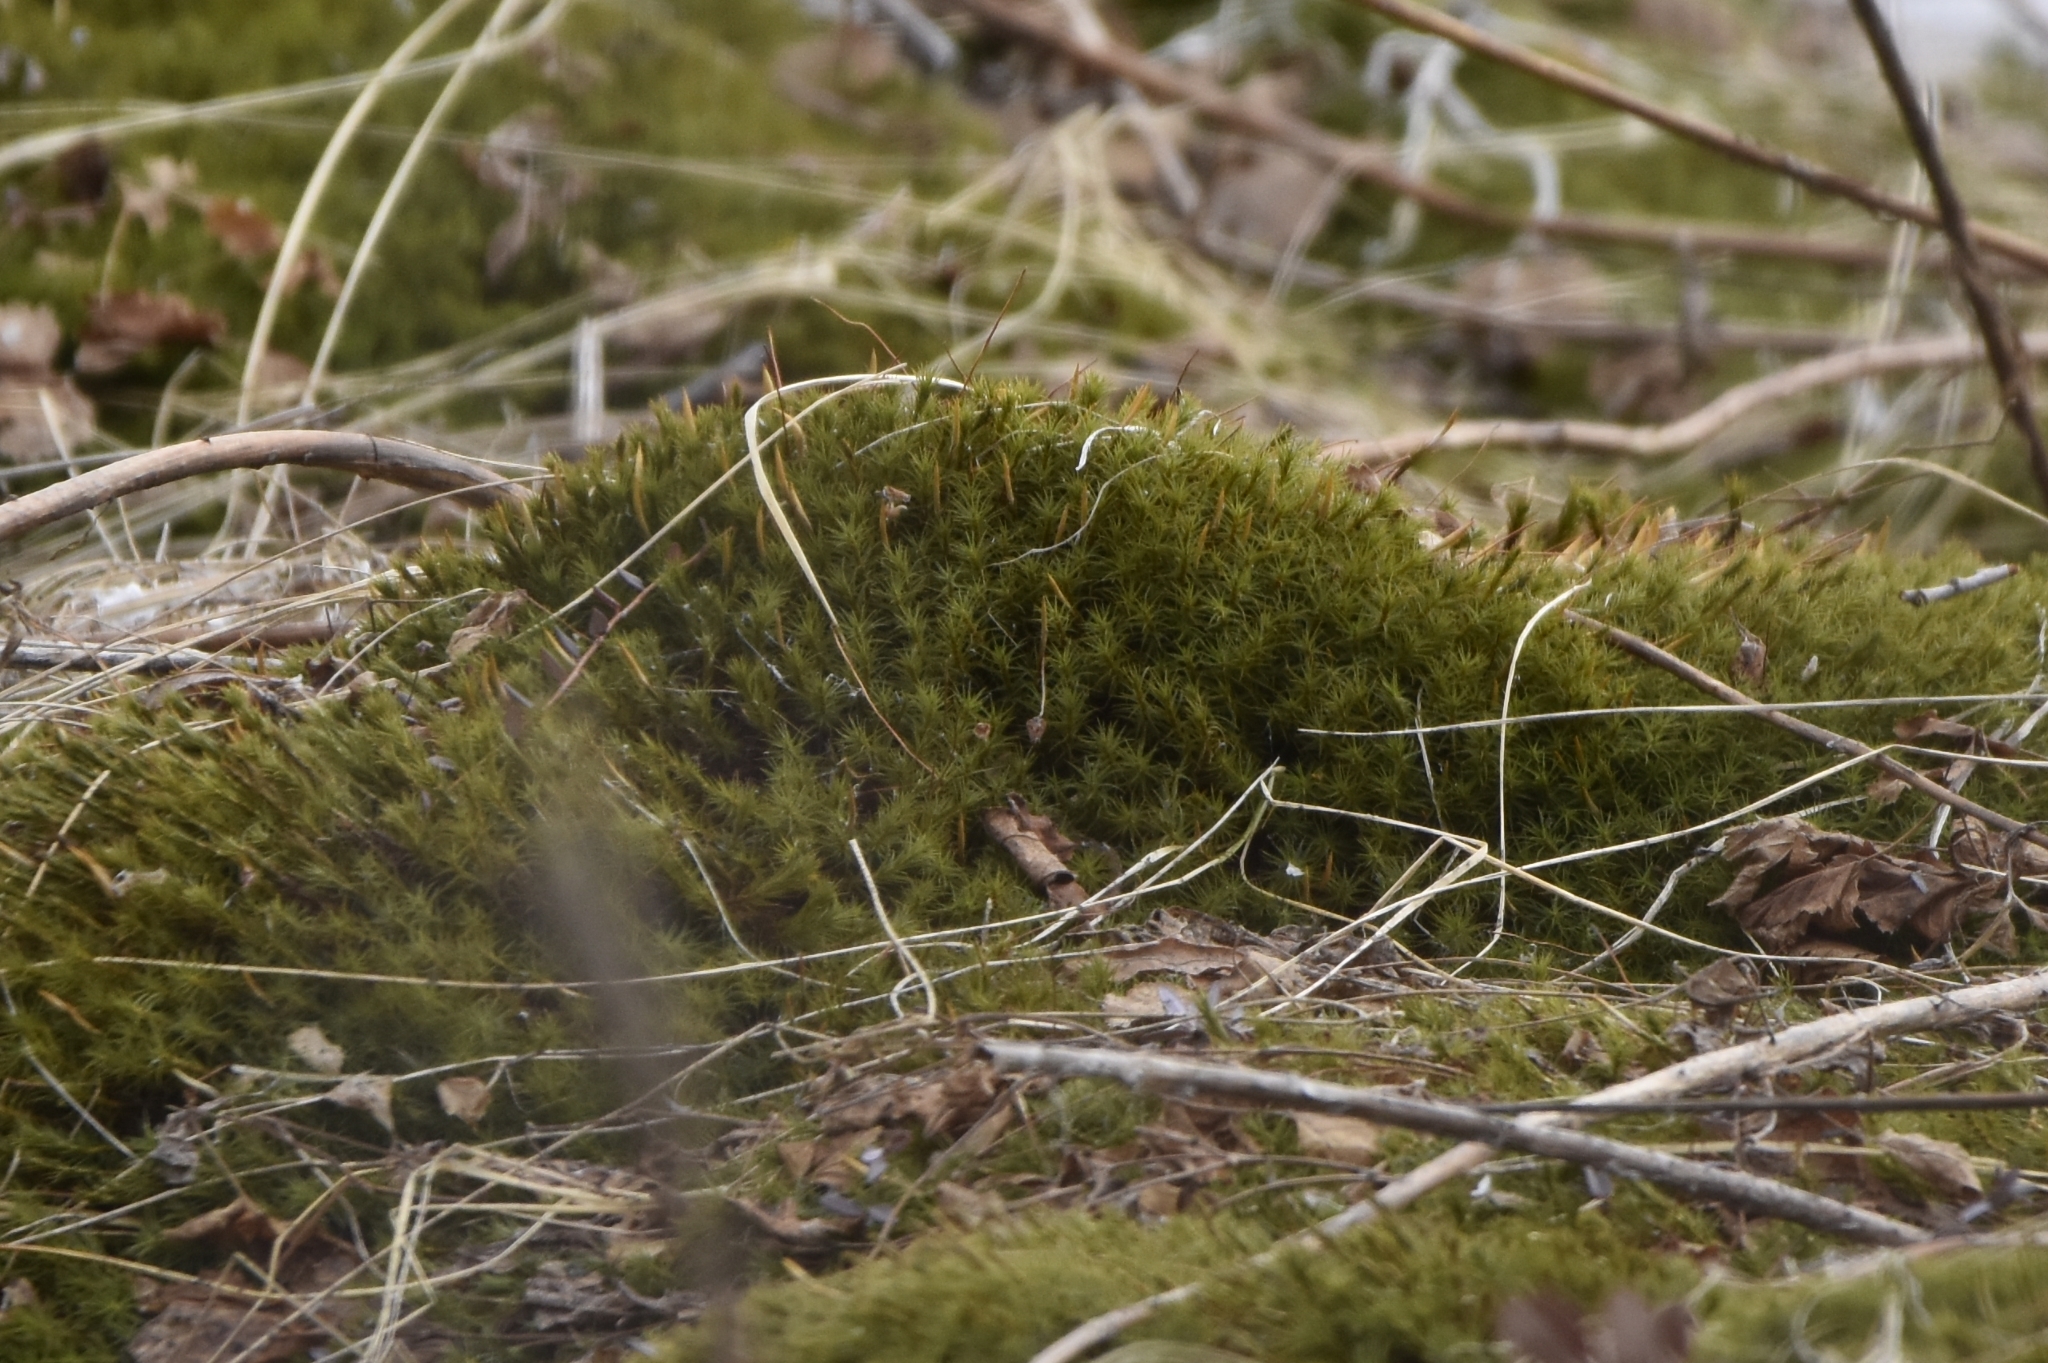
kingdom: Plantae
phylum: Bryophyta
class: Polytrichopsida
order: Polytrichales
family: Polytrichaceae
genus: Polytrichum
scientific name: Polytrichum commune
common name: Common haircap
